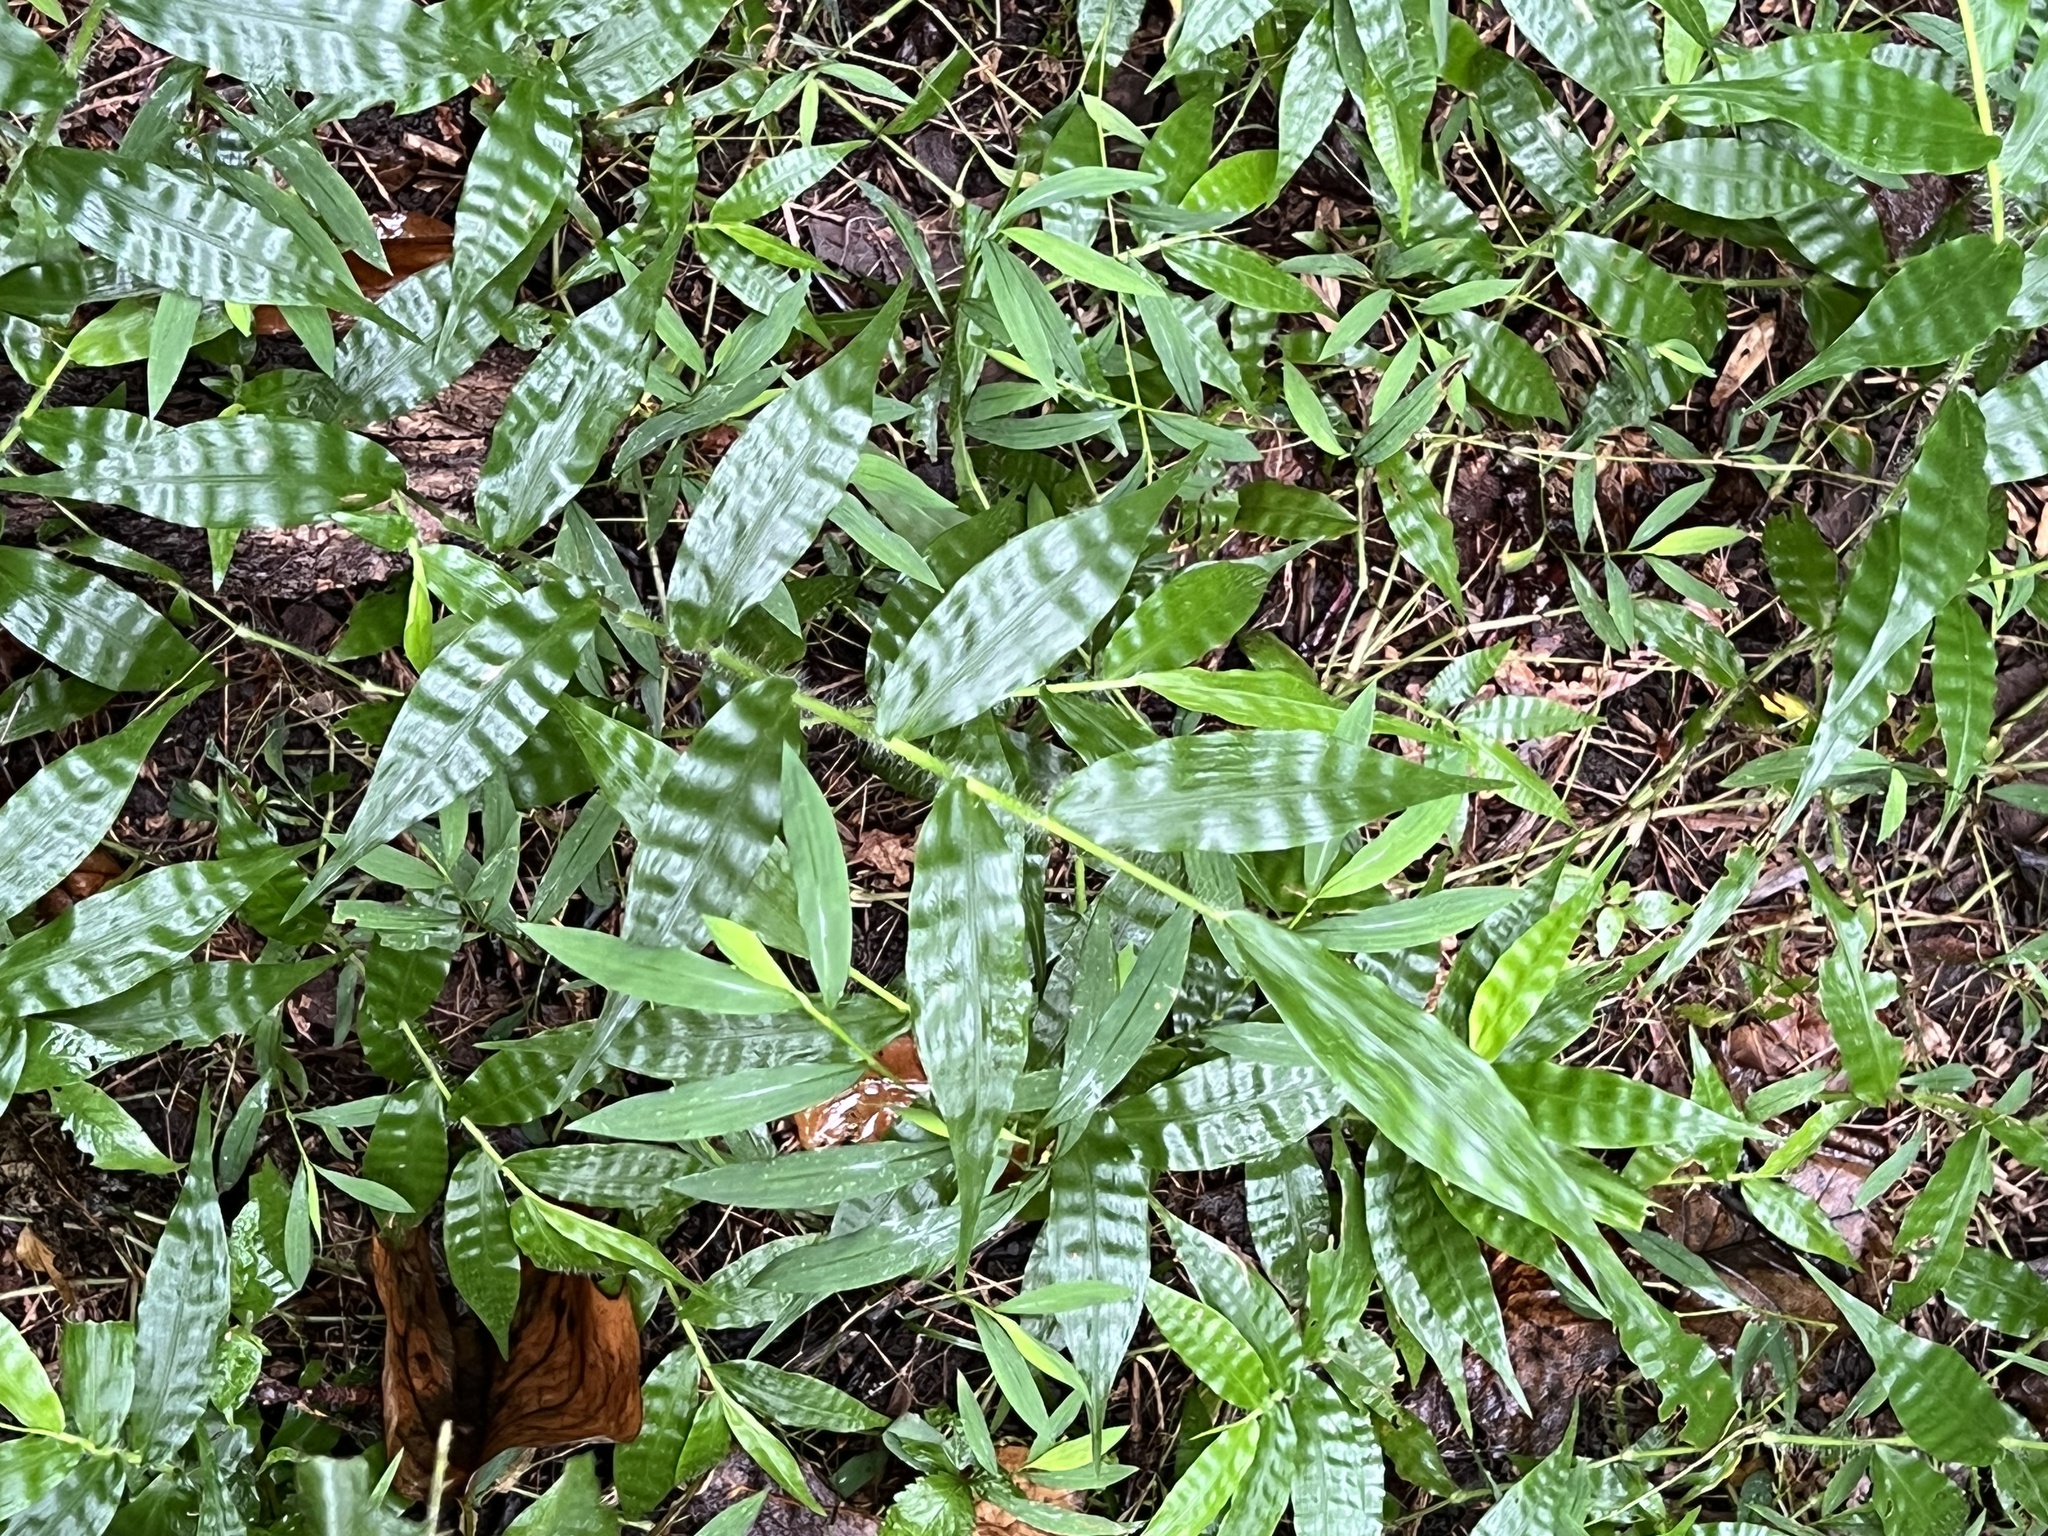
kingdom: Plantae
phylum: Tracheophyta
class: Liliopsida
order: Poales
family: Poaceae
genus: Oplismenus
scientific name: Oplismenus undulatifolius
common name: Wavyleaf basketgrass
